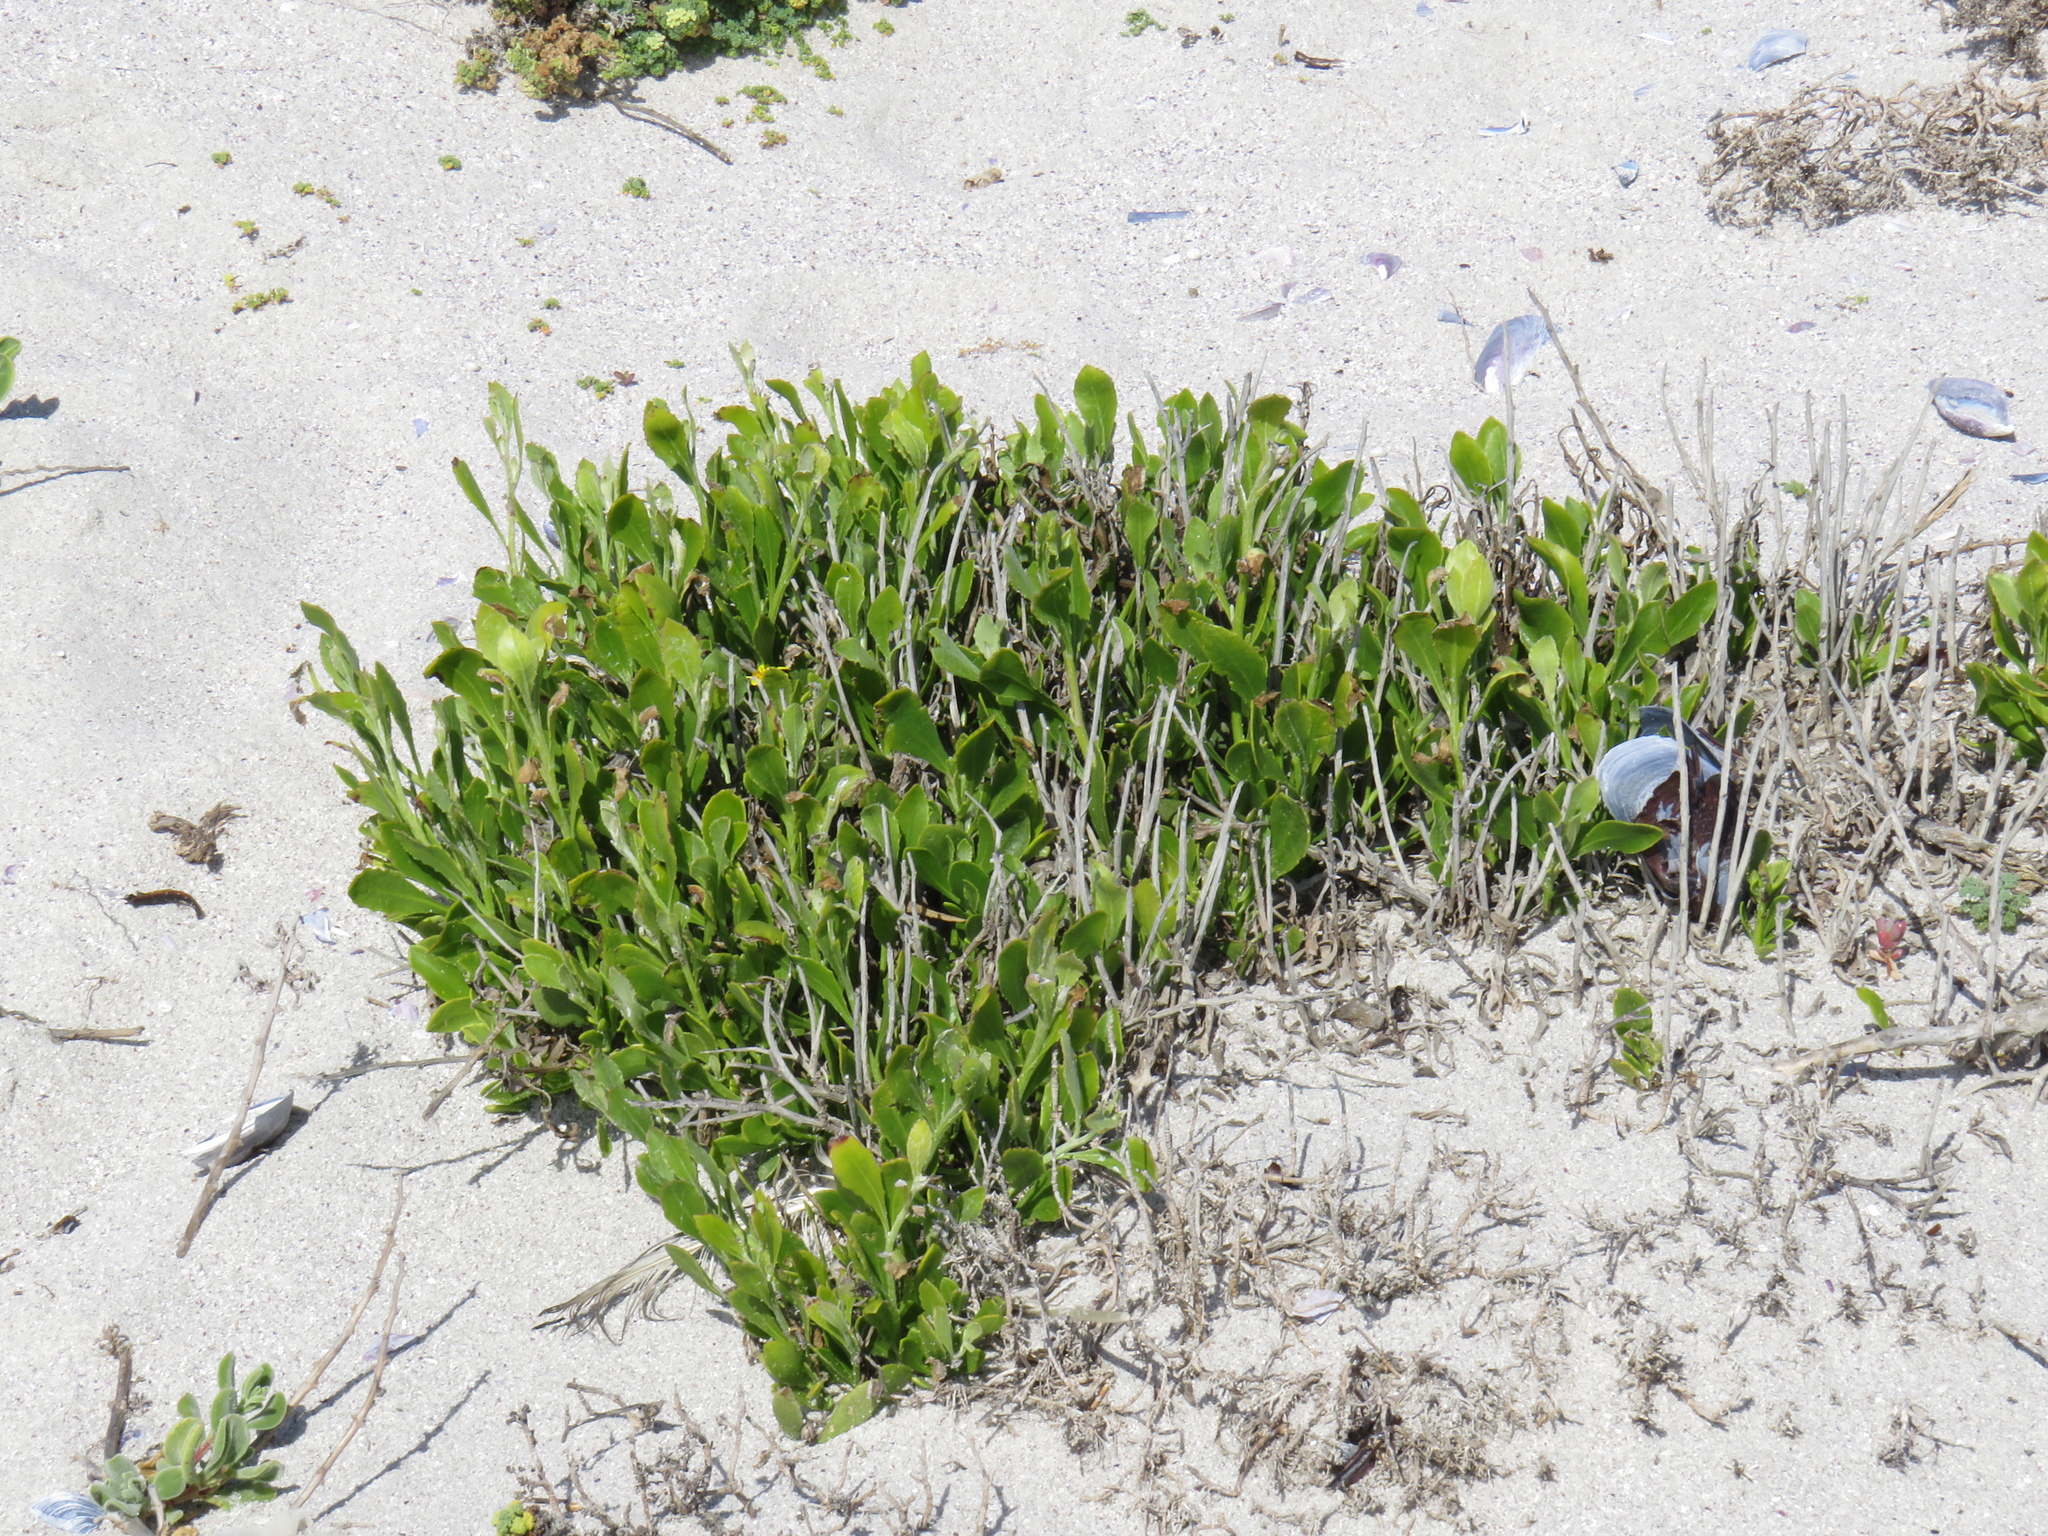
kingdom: Plantae
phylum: Tracheophyta
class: Magnoliopsida
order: Asterales
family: Asteraceae
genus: Osteospermum
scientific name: Osteospermum moniliferum
